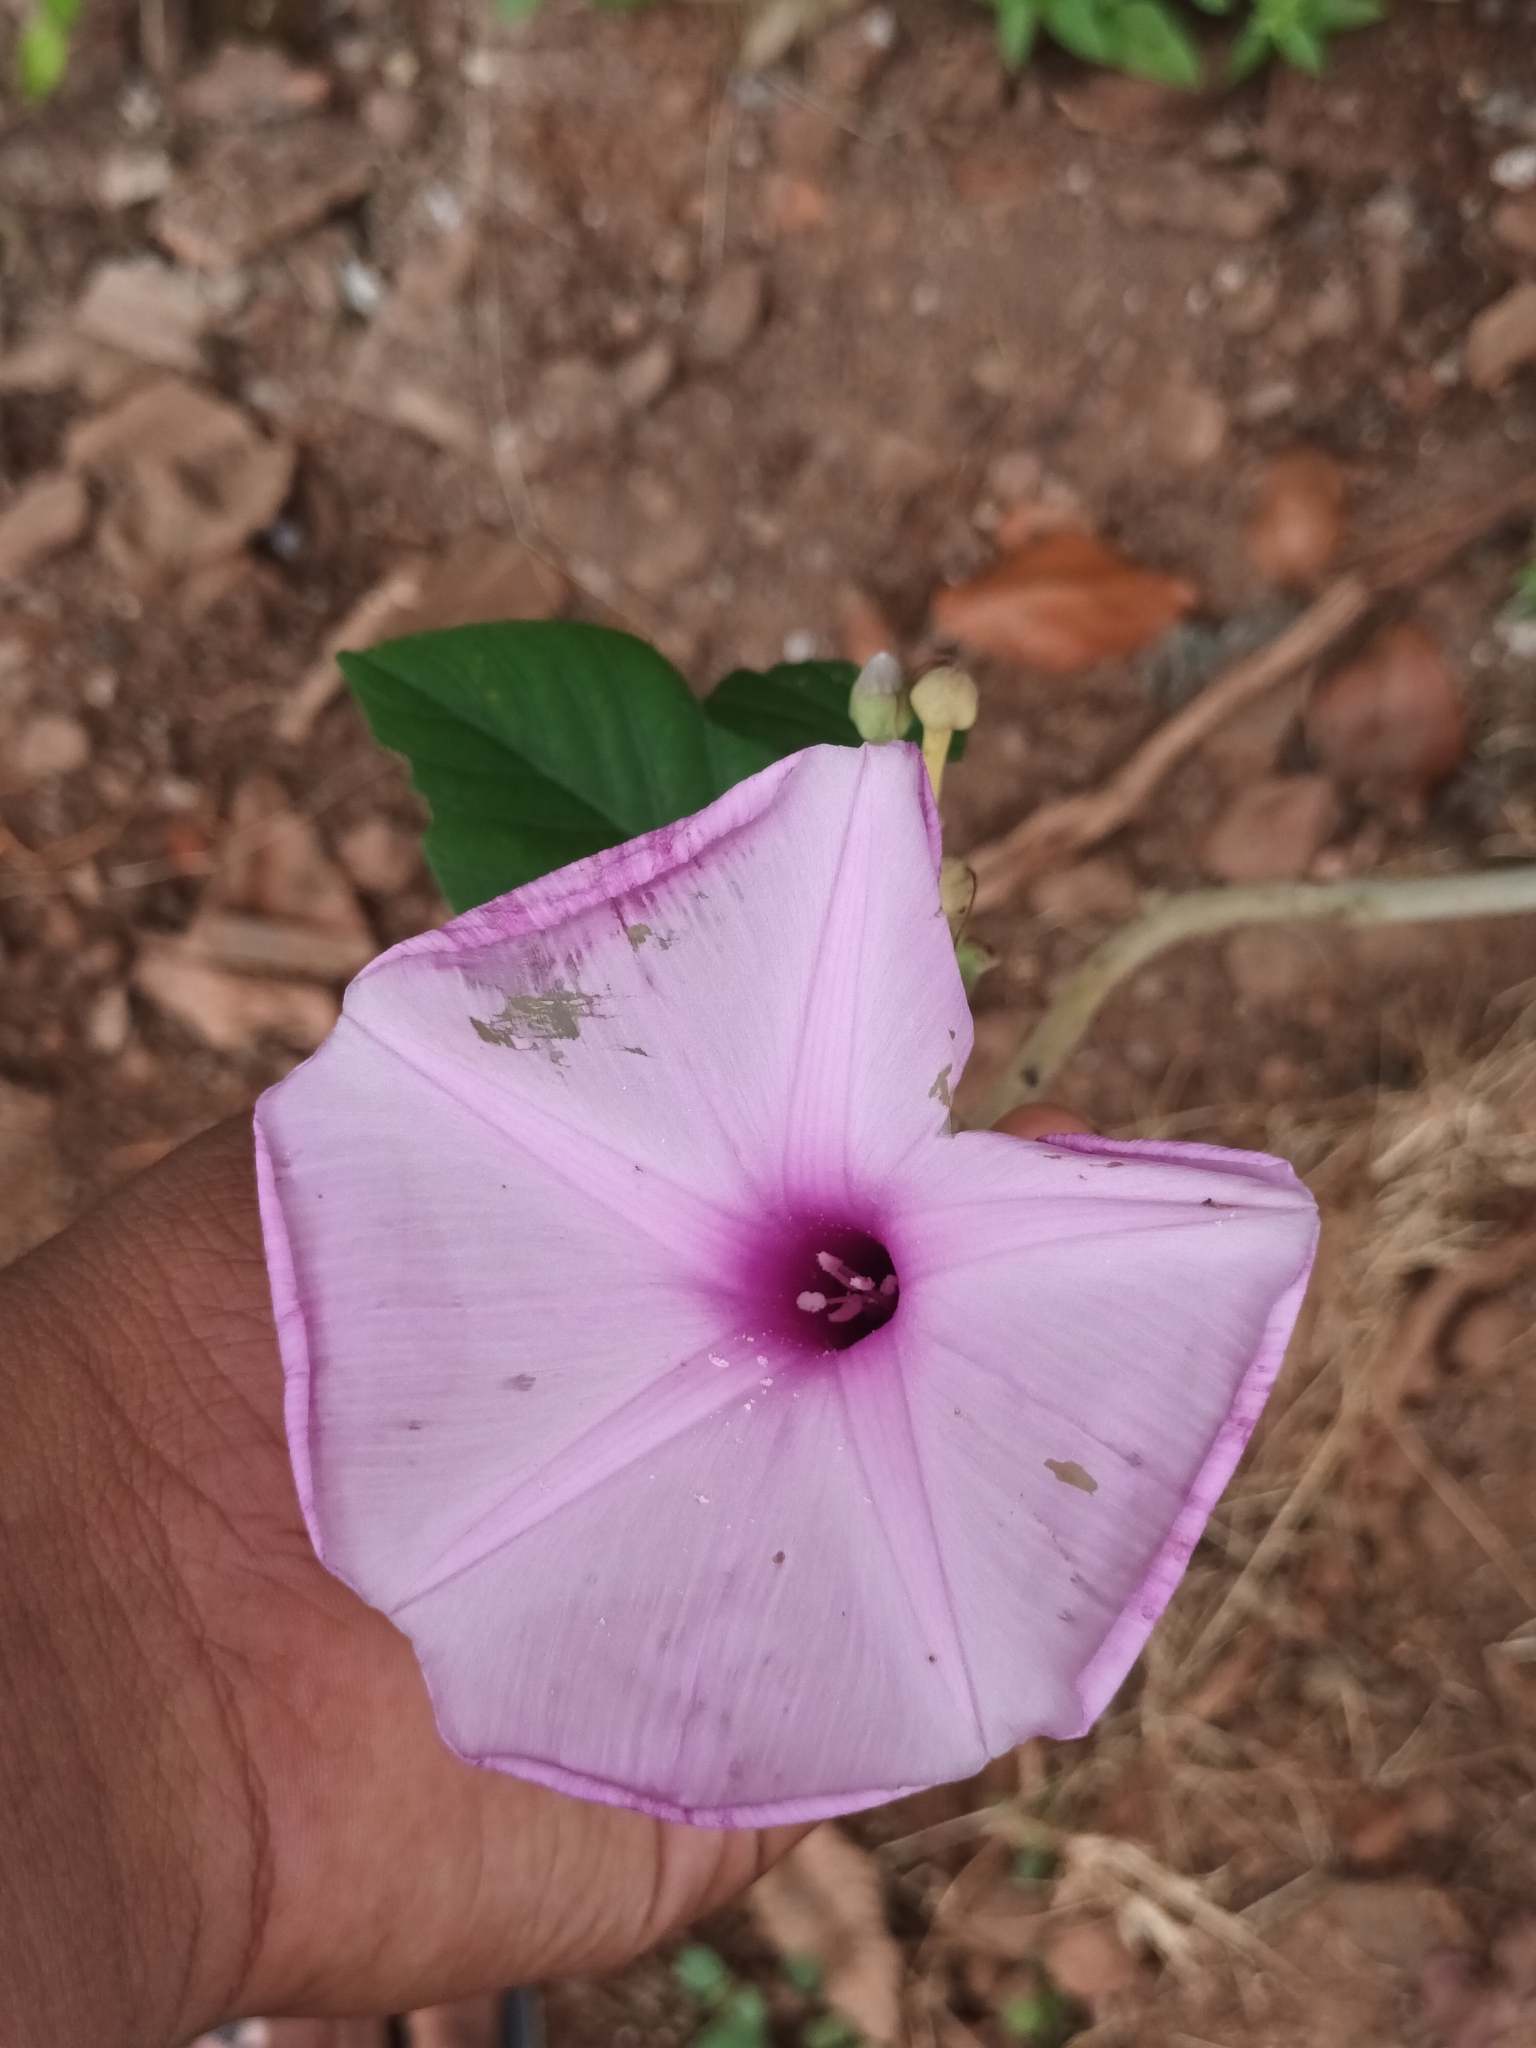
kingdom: Plantae
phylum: Tracheophyta
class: Magnoliopsida
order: Solanales
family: Convolvulaceae
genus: Ipomoea
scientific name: Ipomoea carnea
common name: Morning-glory
